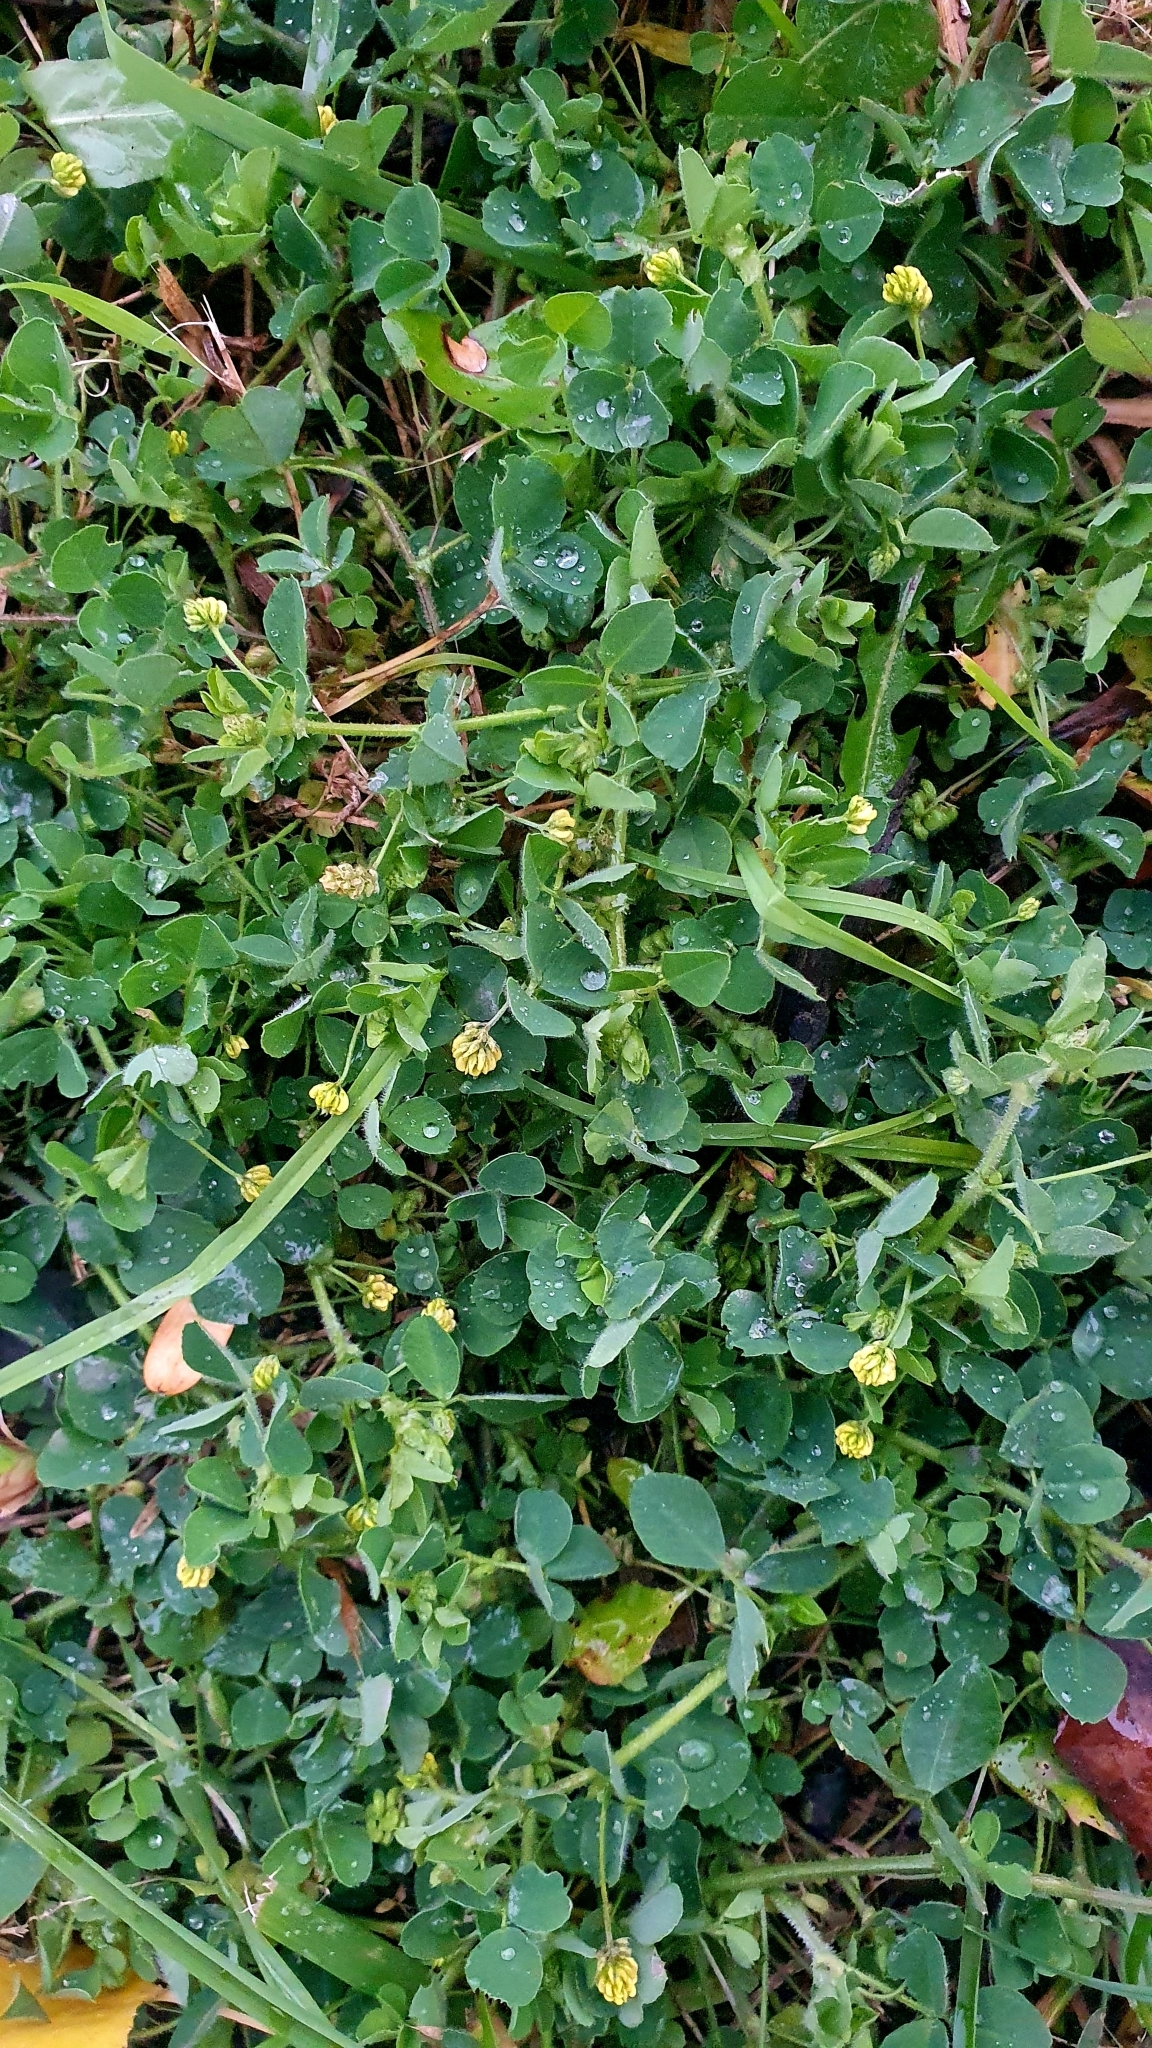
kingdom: Plantae
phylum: Tracheophyta
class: Magnoliopsida
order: Fabales
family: Fabaceae
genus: Medicago
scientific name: Medicago lupulina
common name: Black medick
